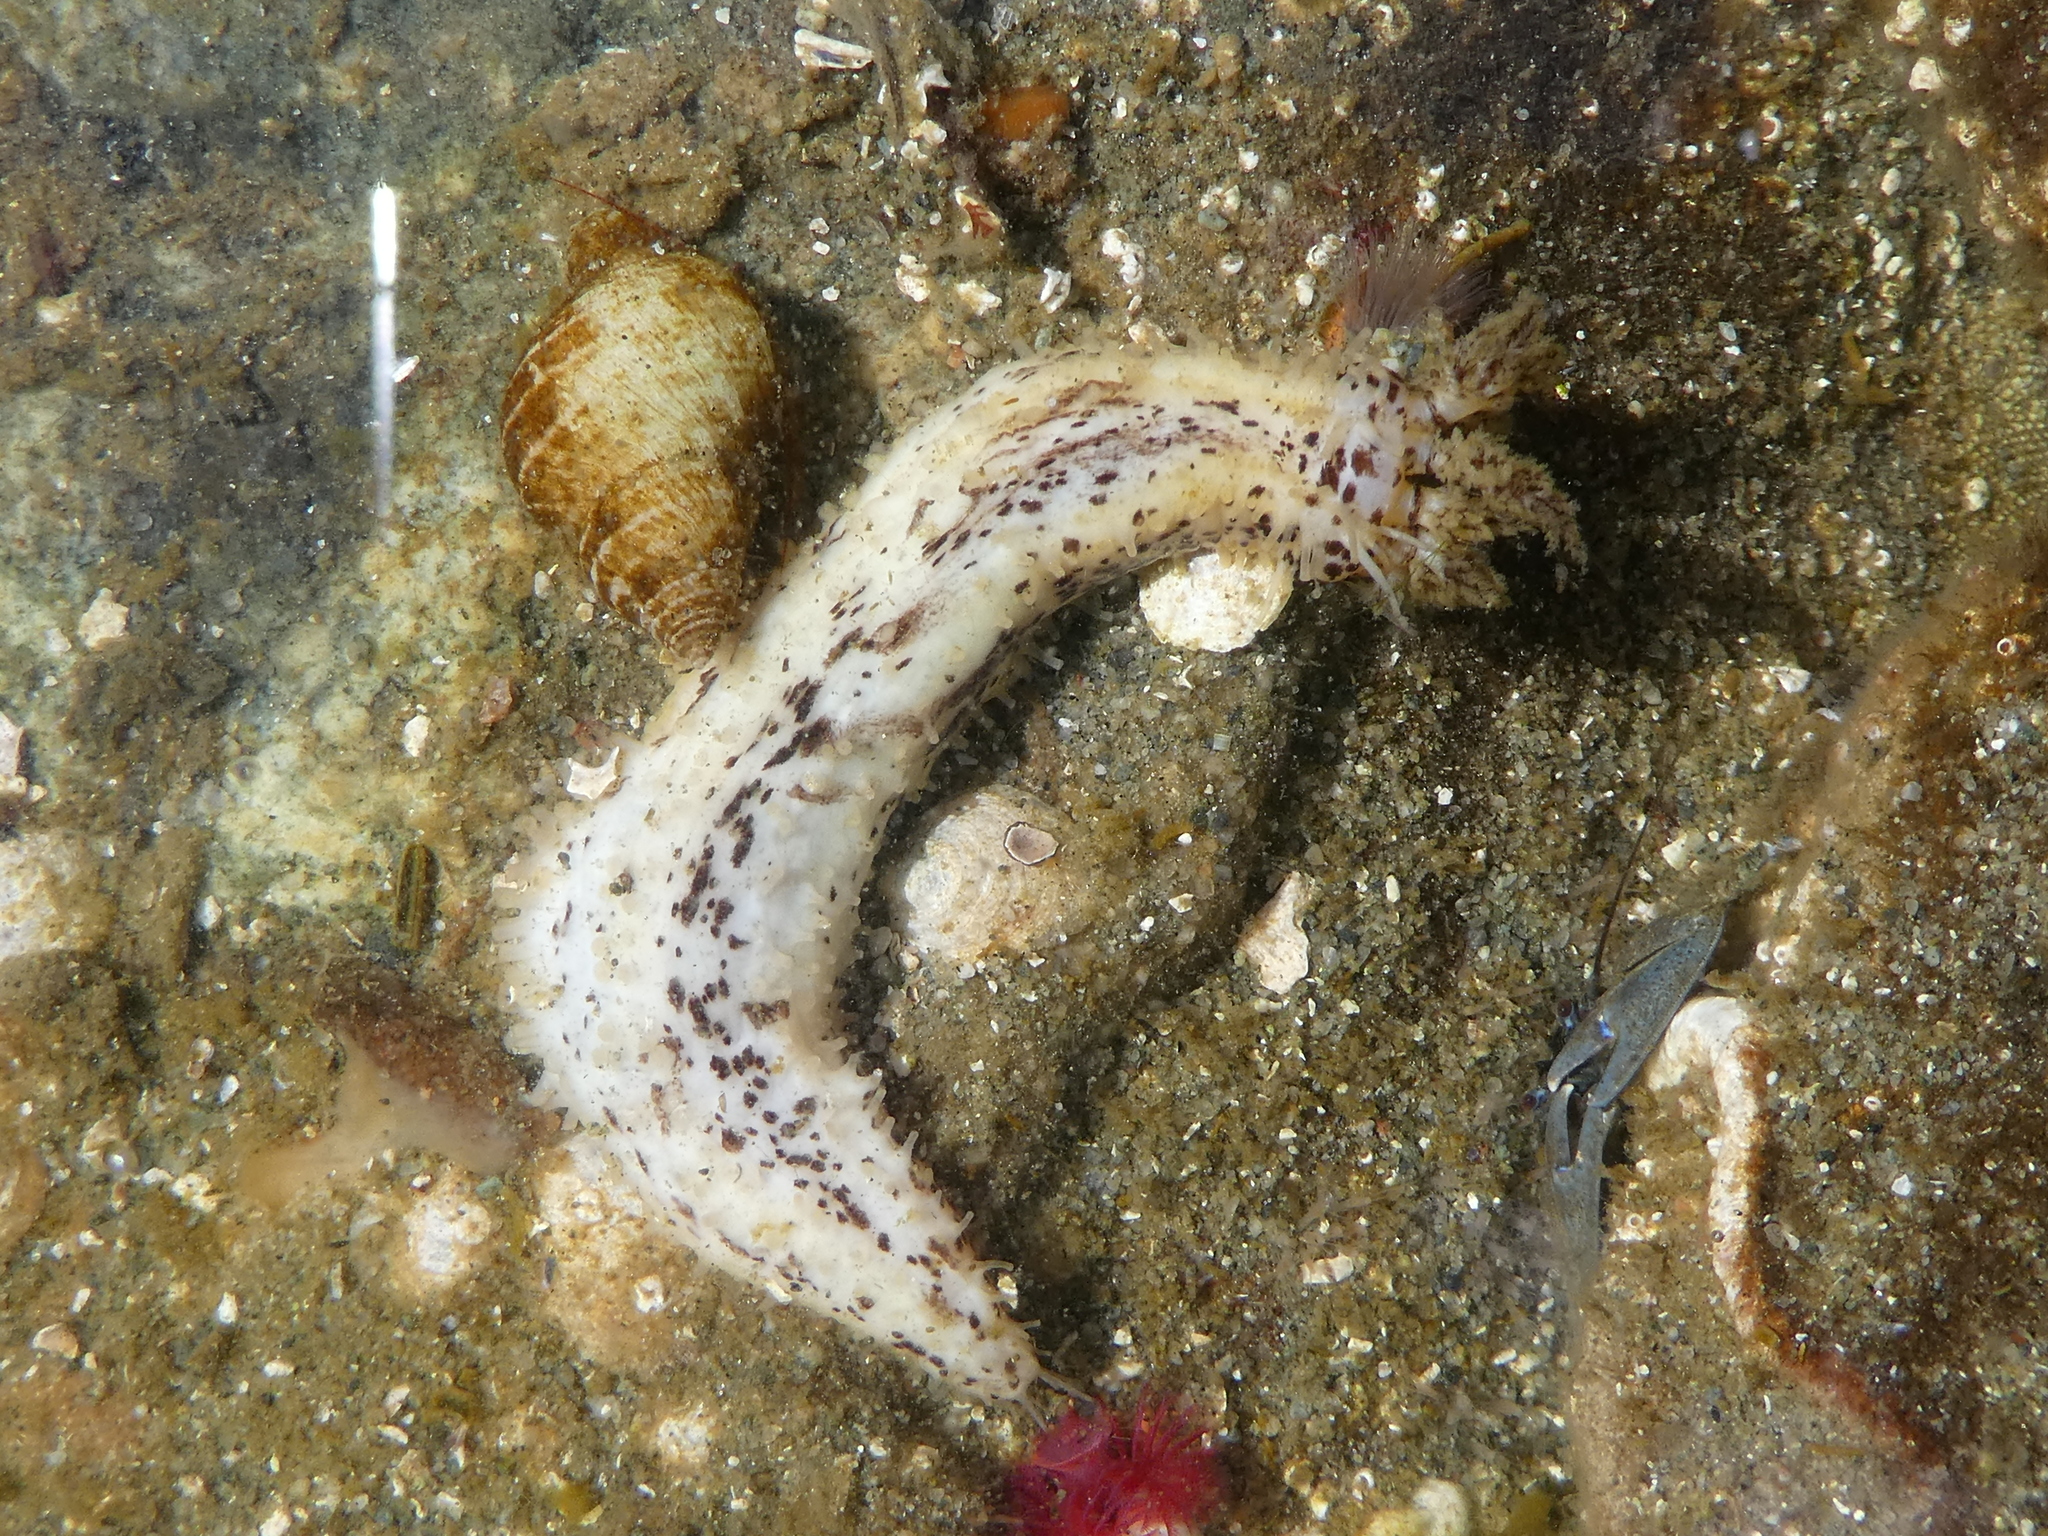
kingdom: Animalia
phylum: Echinodermata
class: Holothuroidea
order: Dendrochirotida
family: Cucumariidae
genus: Cucumaria
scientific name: Cucumaria piperata
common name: Peppered sea cucumber
